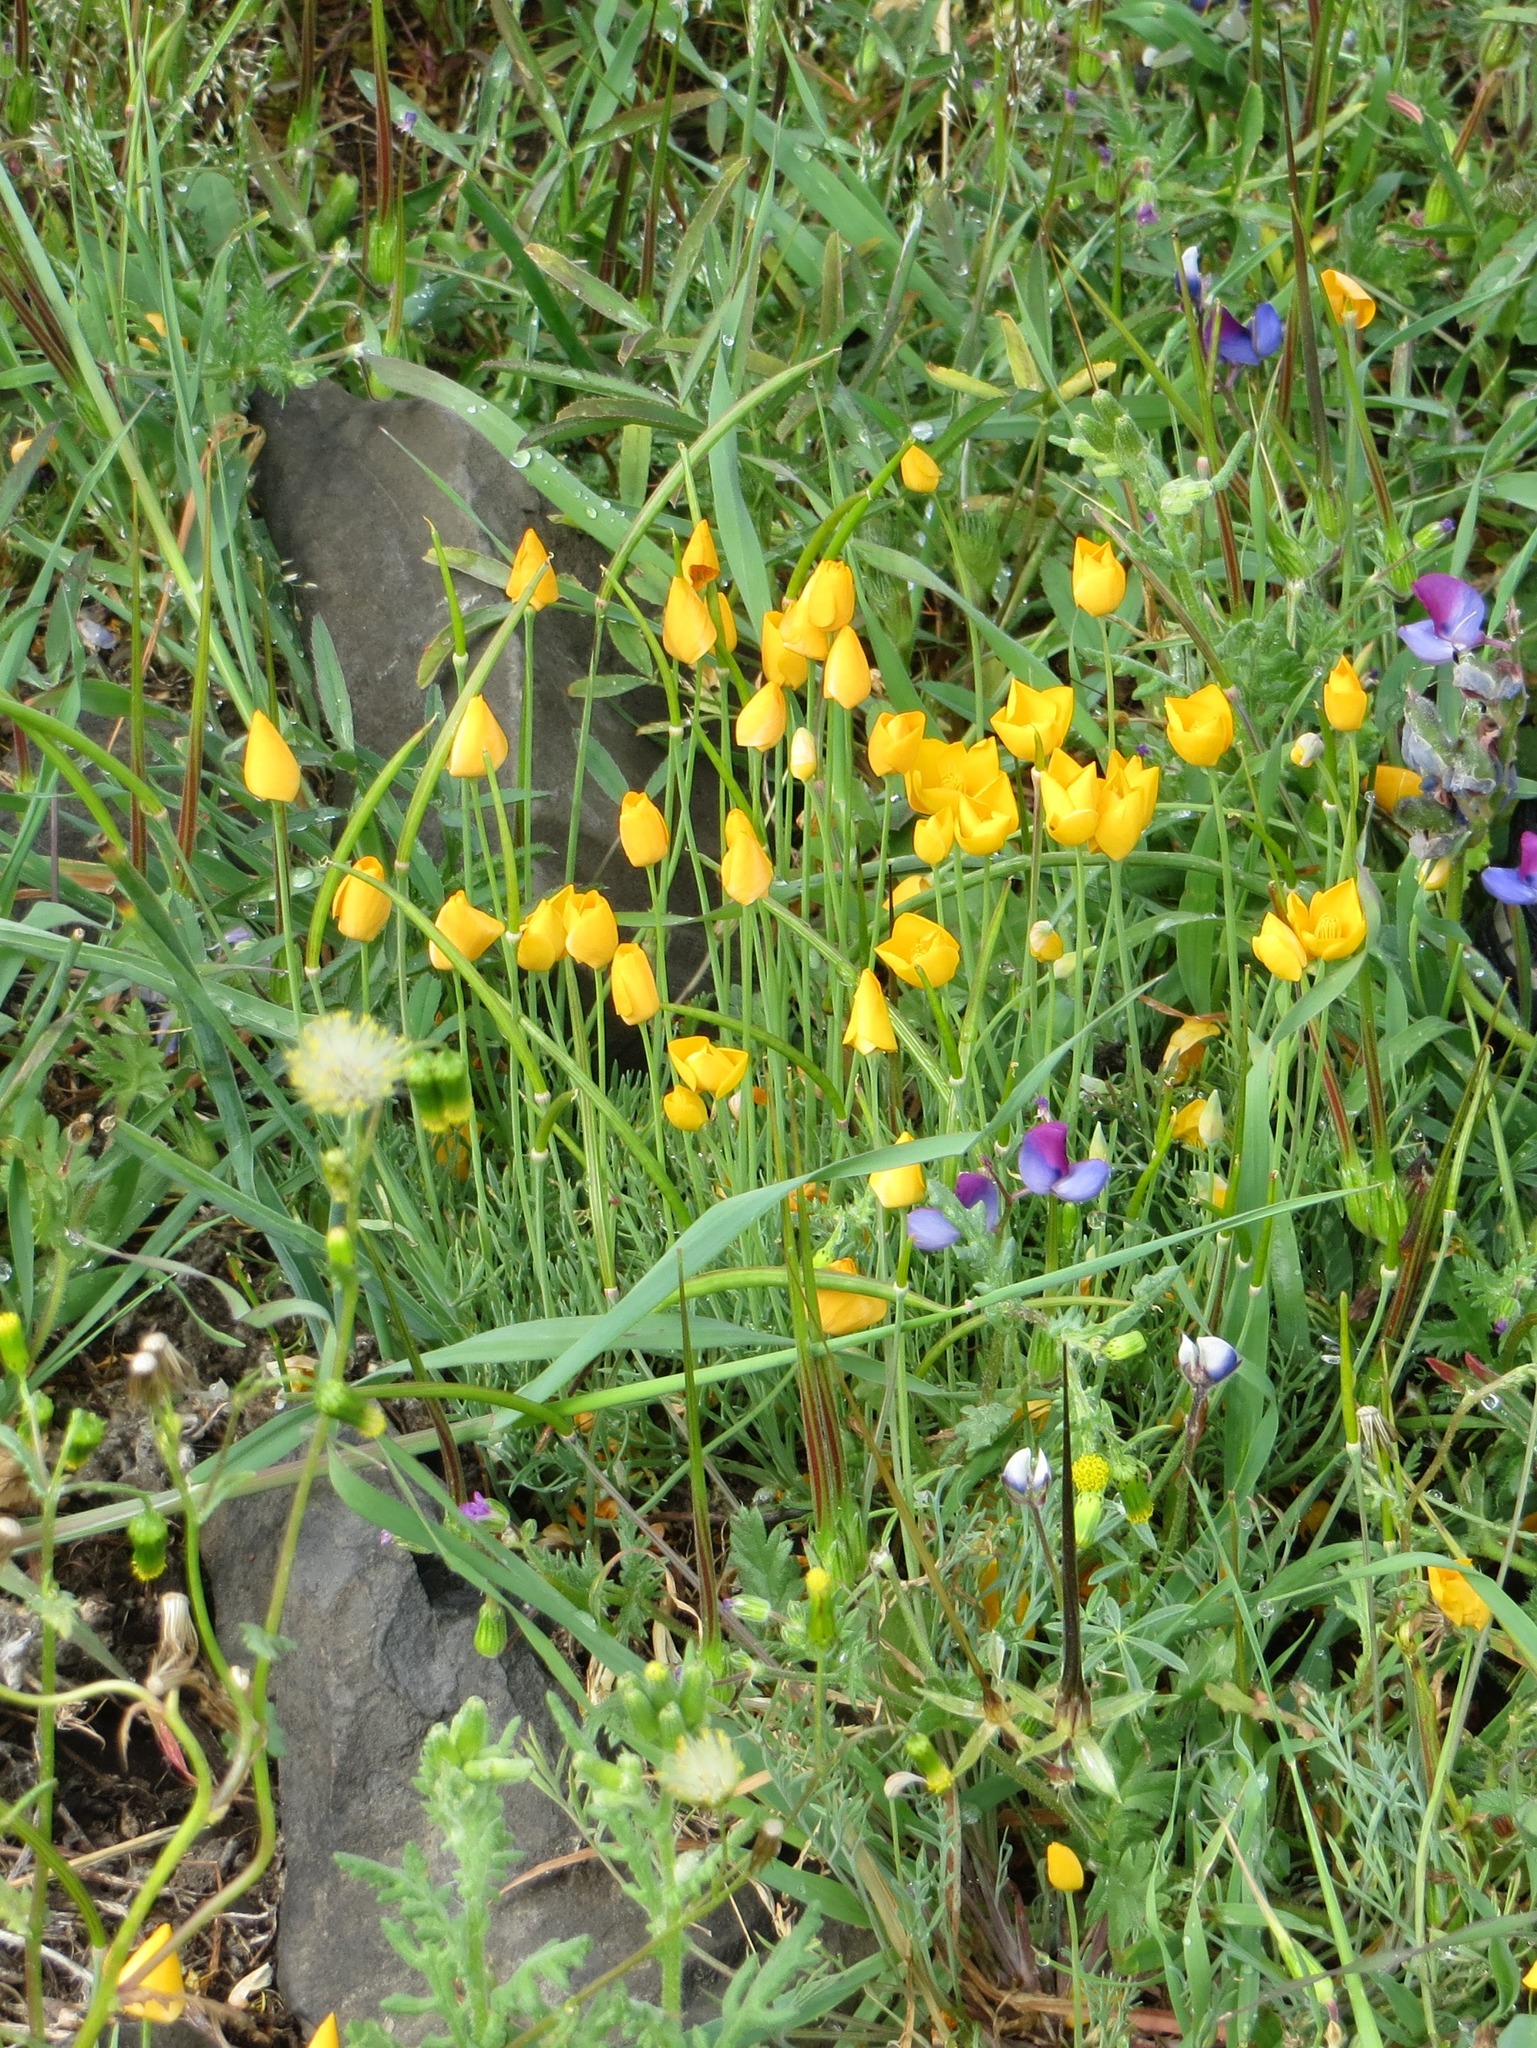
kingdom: Plantae
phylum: Tracheophyta
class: Magnoliopsida
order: Ranunculales
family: Papaveraceae
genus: Eschscholzia
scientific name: Eschscholzia lobbii
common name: Frying-pans
